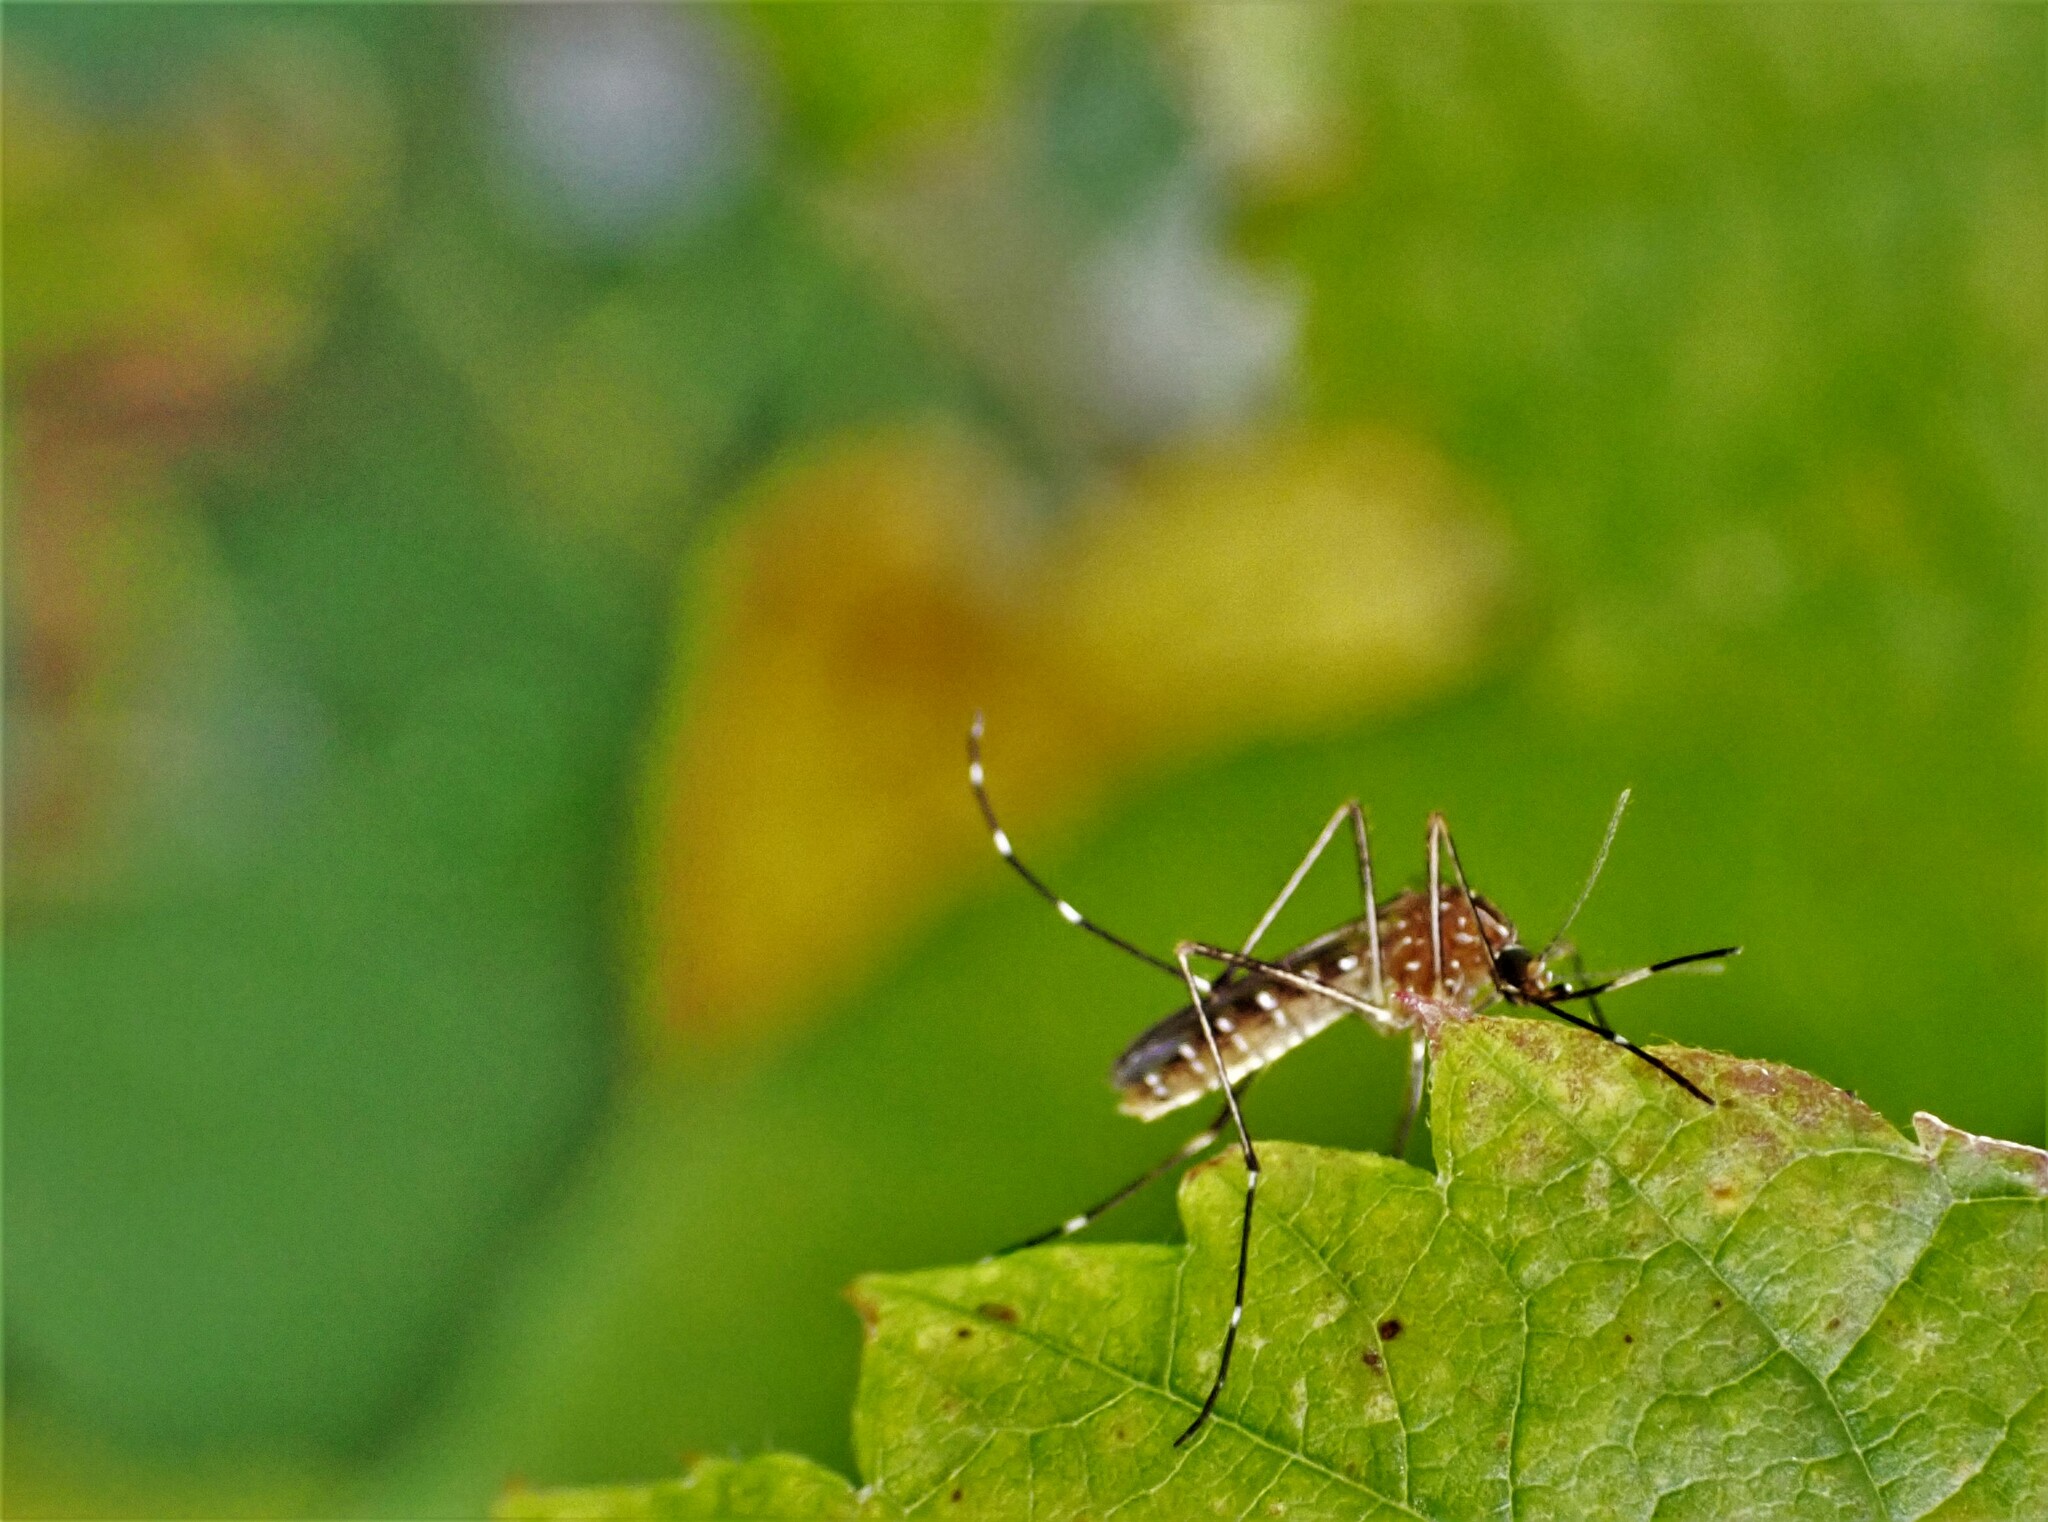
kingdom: Animalia
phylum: Arthropoda
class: Insecta
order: Diptera
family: Culicidae
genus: Aedes
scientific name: Aedes notoscriptus
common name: Australian backyard mosquito
